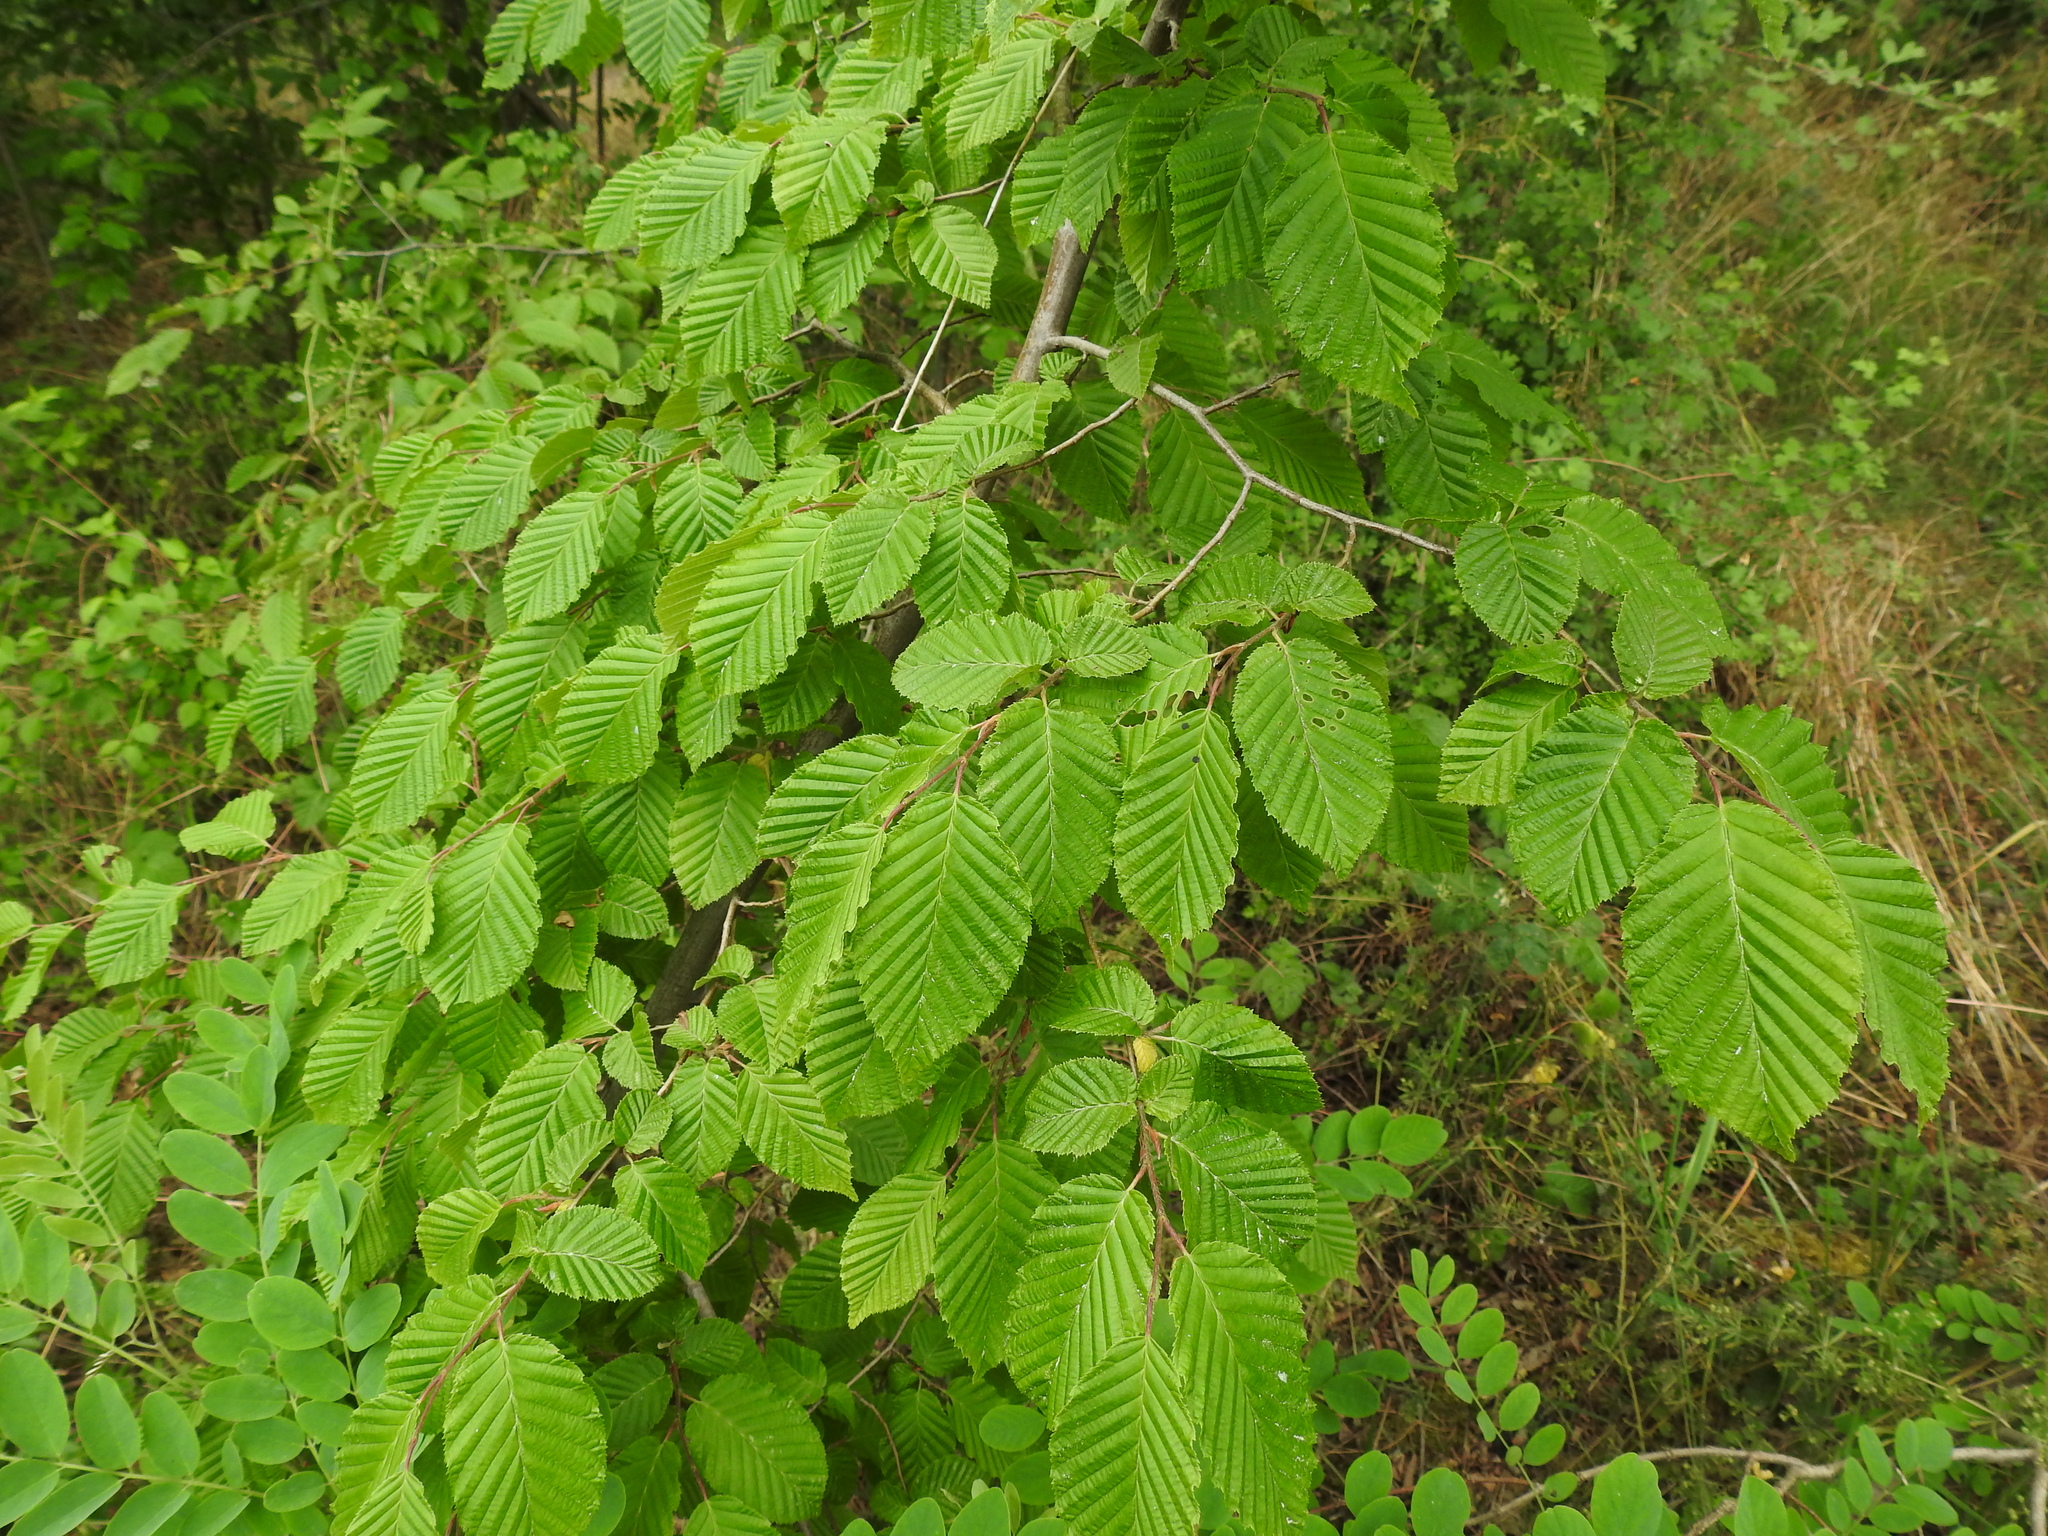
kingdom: Plantae
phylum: Tracheophyta
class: Magnoliopsida
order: Fagales
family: Betulaceae
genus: Carpinus
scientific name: Carpinus betulus
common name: Hornbeam
